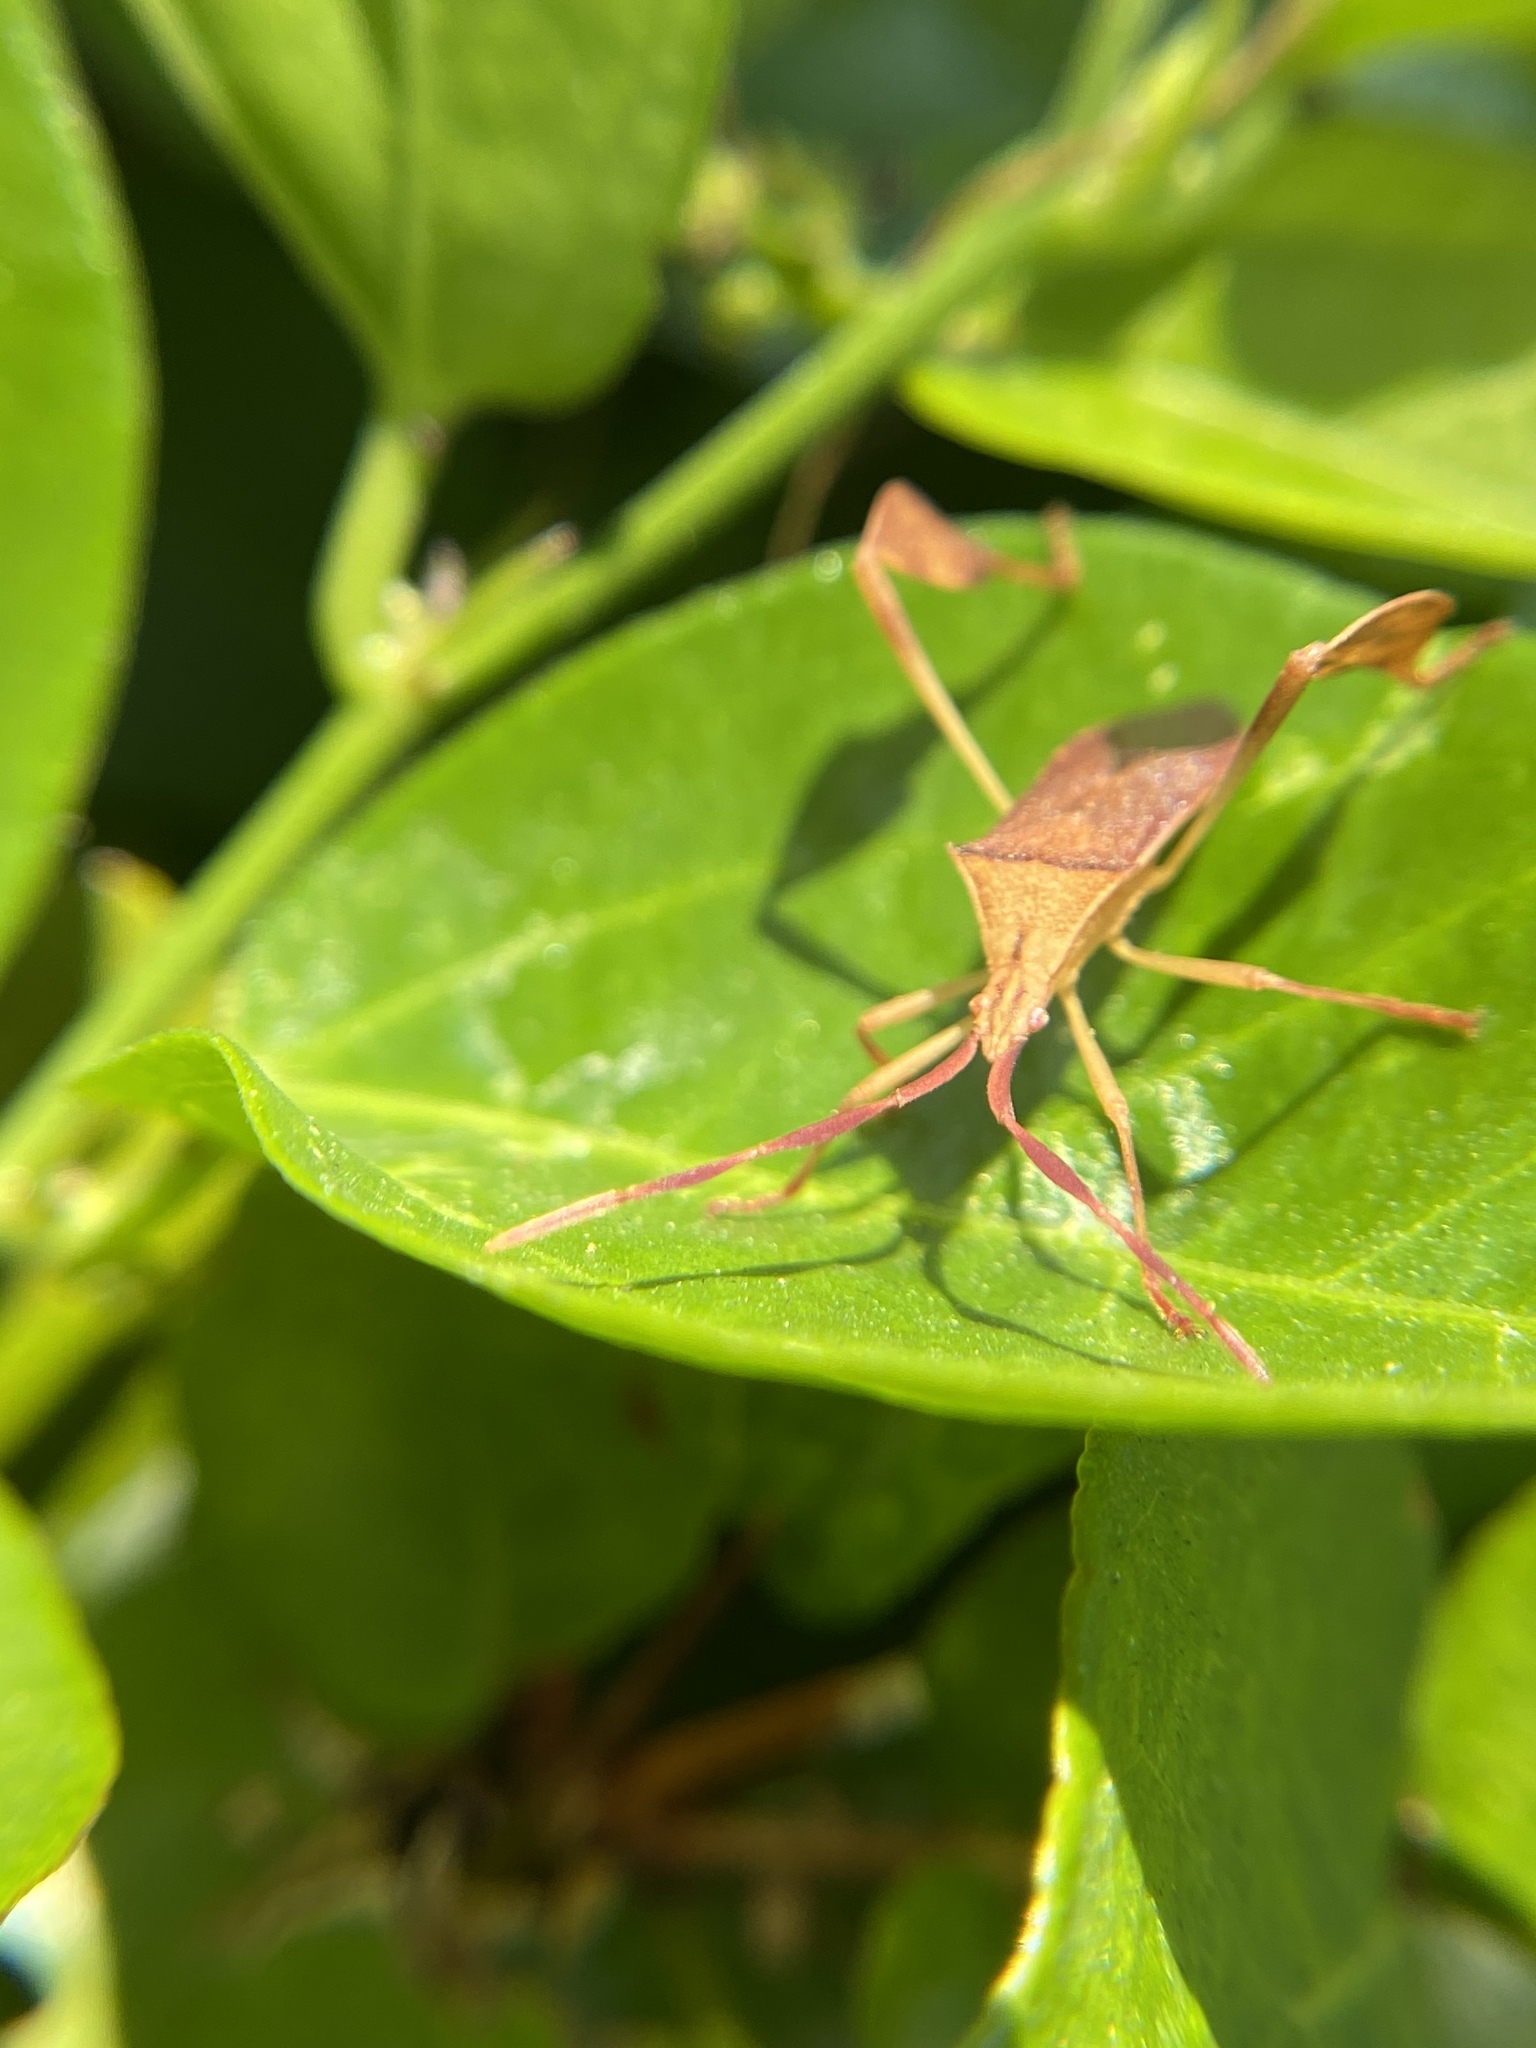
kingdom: Animalia
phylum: Arthropoda
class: Insecta
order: Hemiptera
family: Coreidae
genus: Chondrocera
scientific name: Chondrocera laticornis
